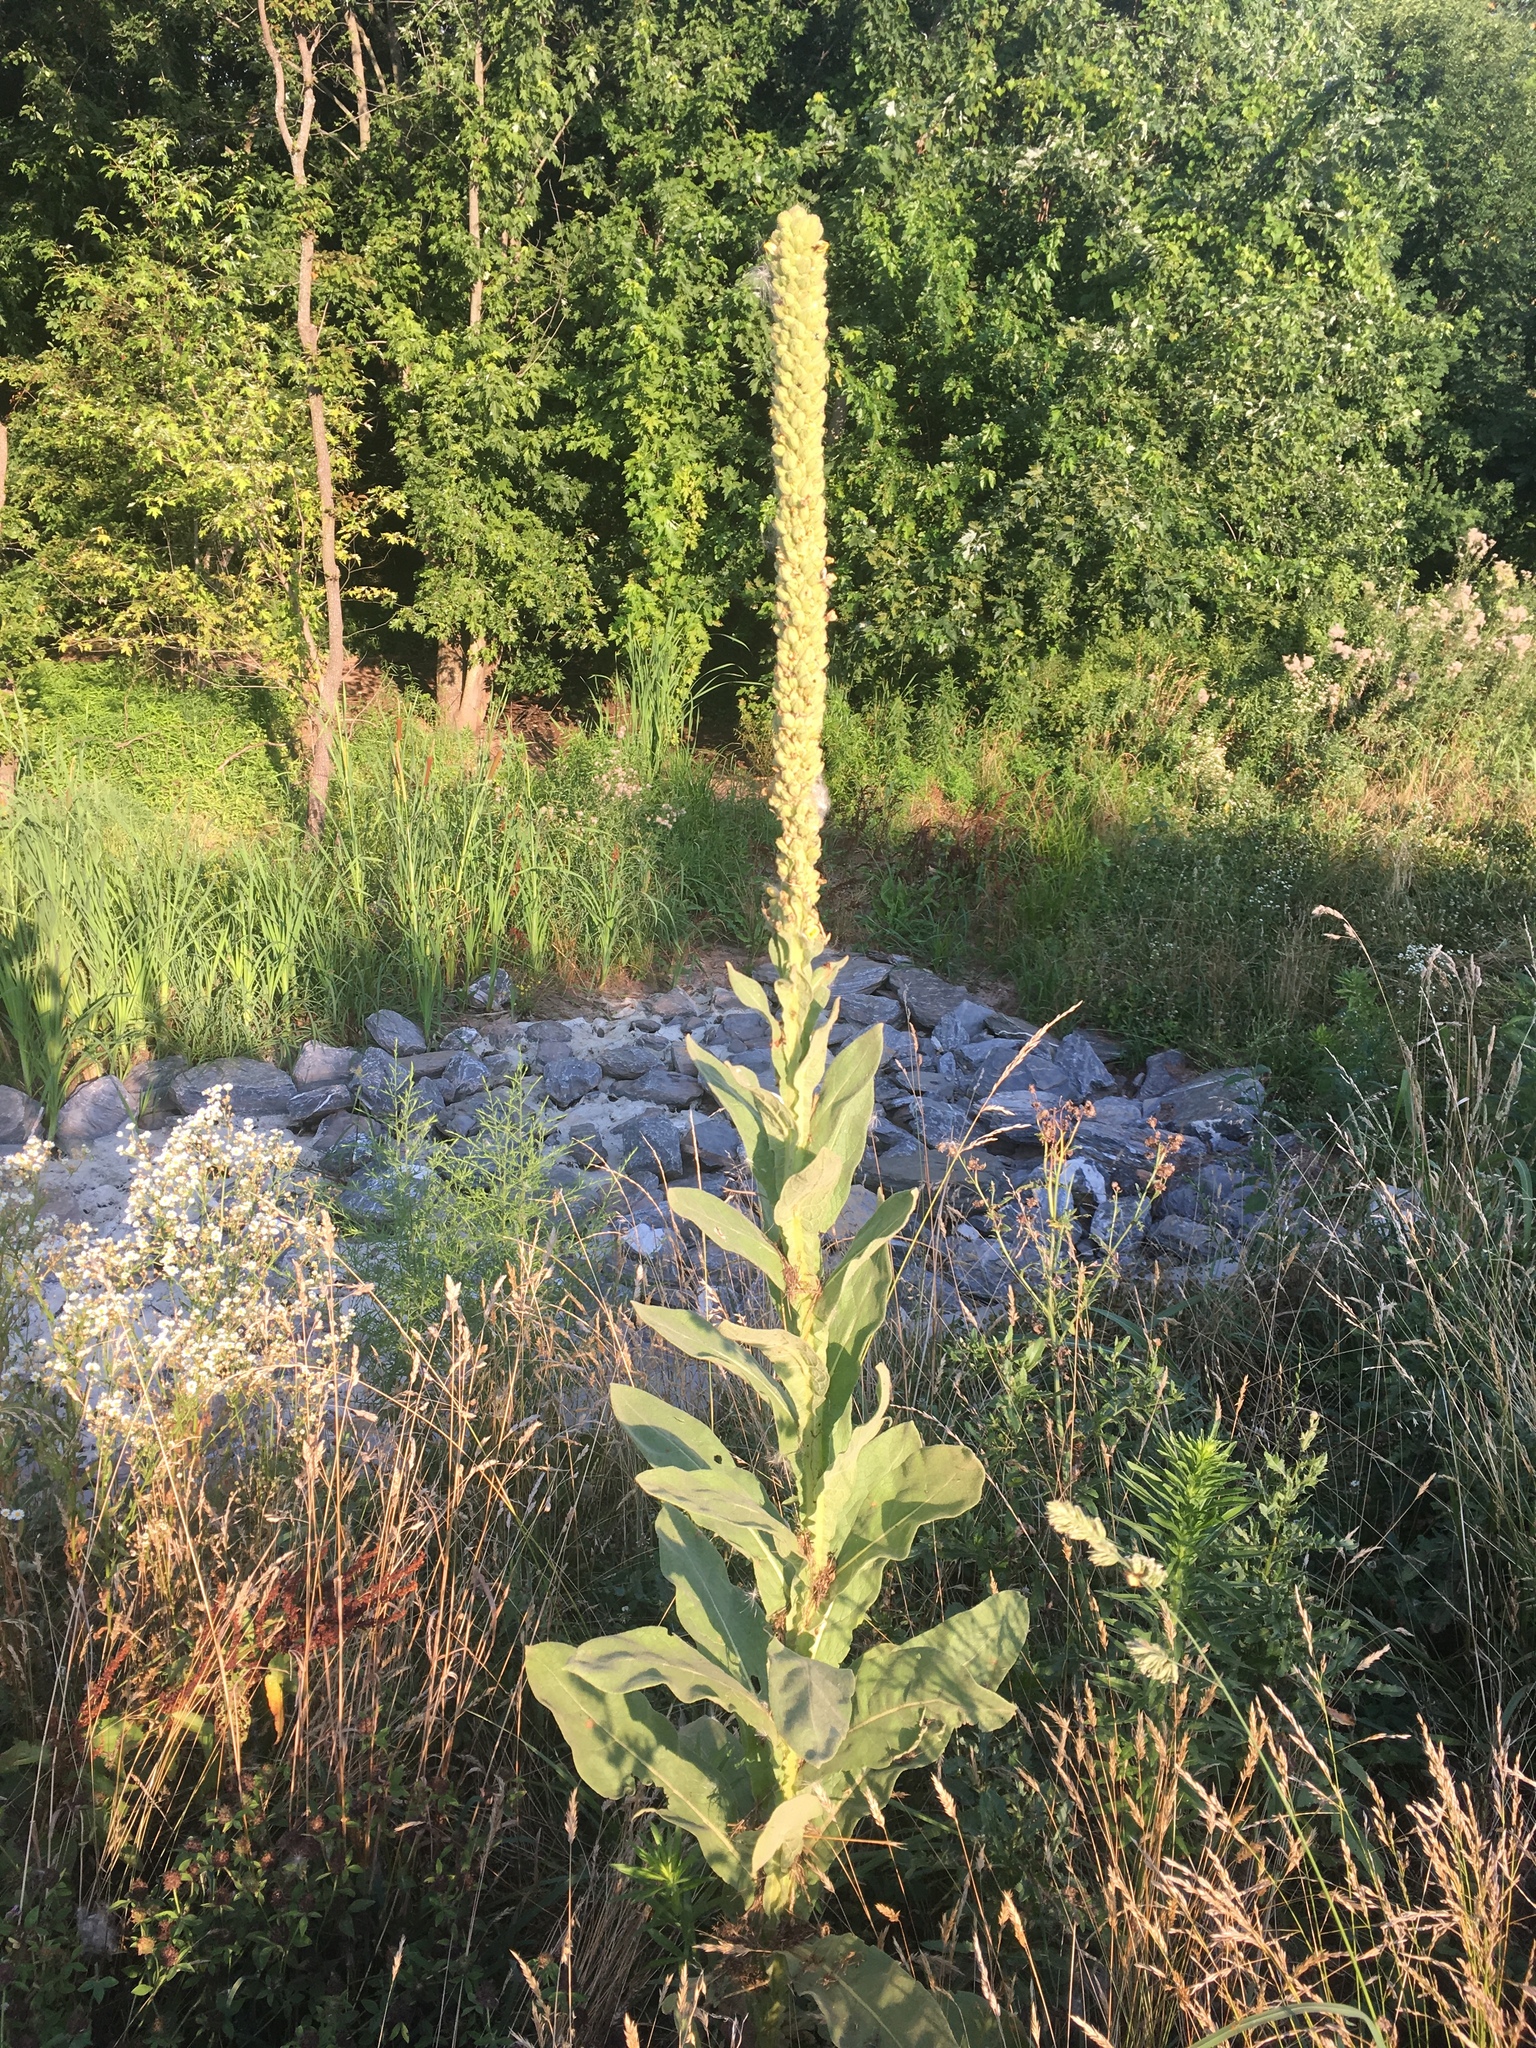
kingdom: Plantae
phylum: Tracheophyta
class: Magnoliopsida
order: Lamiales
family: Scrophulariaceae
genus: Verbascum
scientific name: Verbascum thapsus
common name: Common mullein
